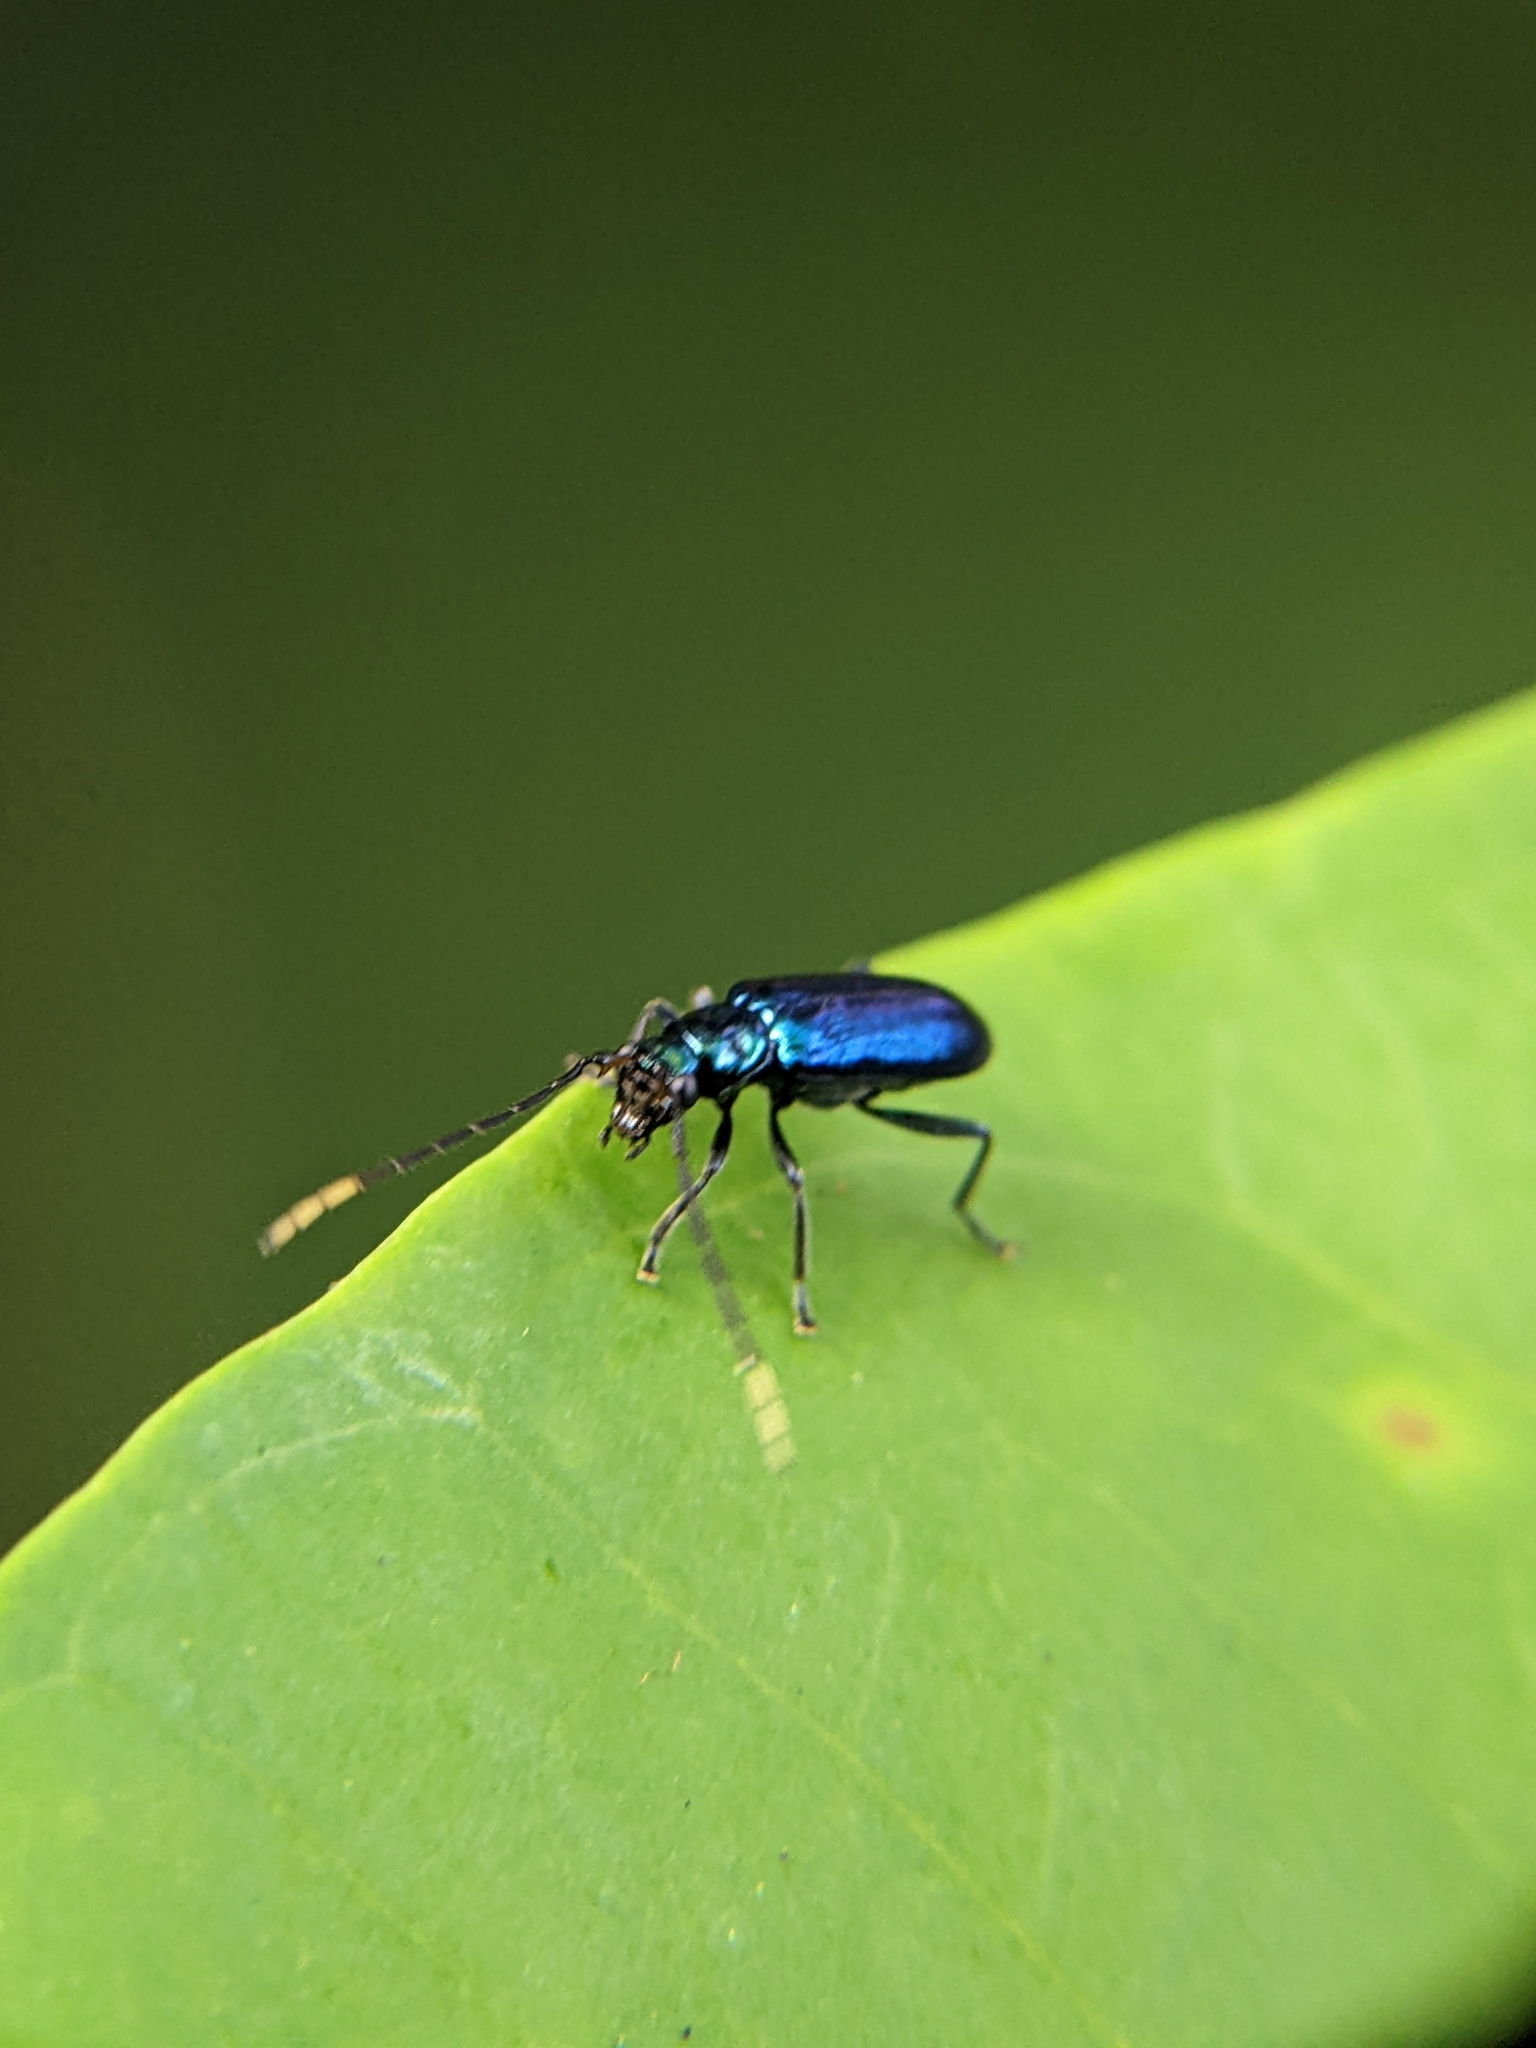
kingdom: Animalia
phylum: Arthropoda
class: Insecta
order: Coleoptera
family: Chrysomelidae
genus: Hoplosaenidea
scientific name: Hoplosaenidea
